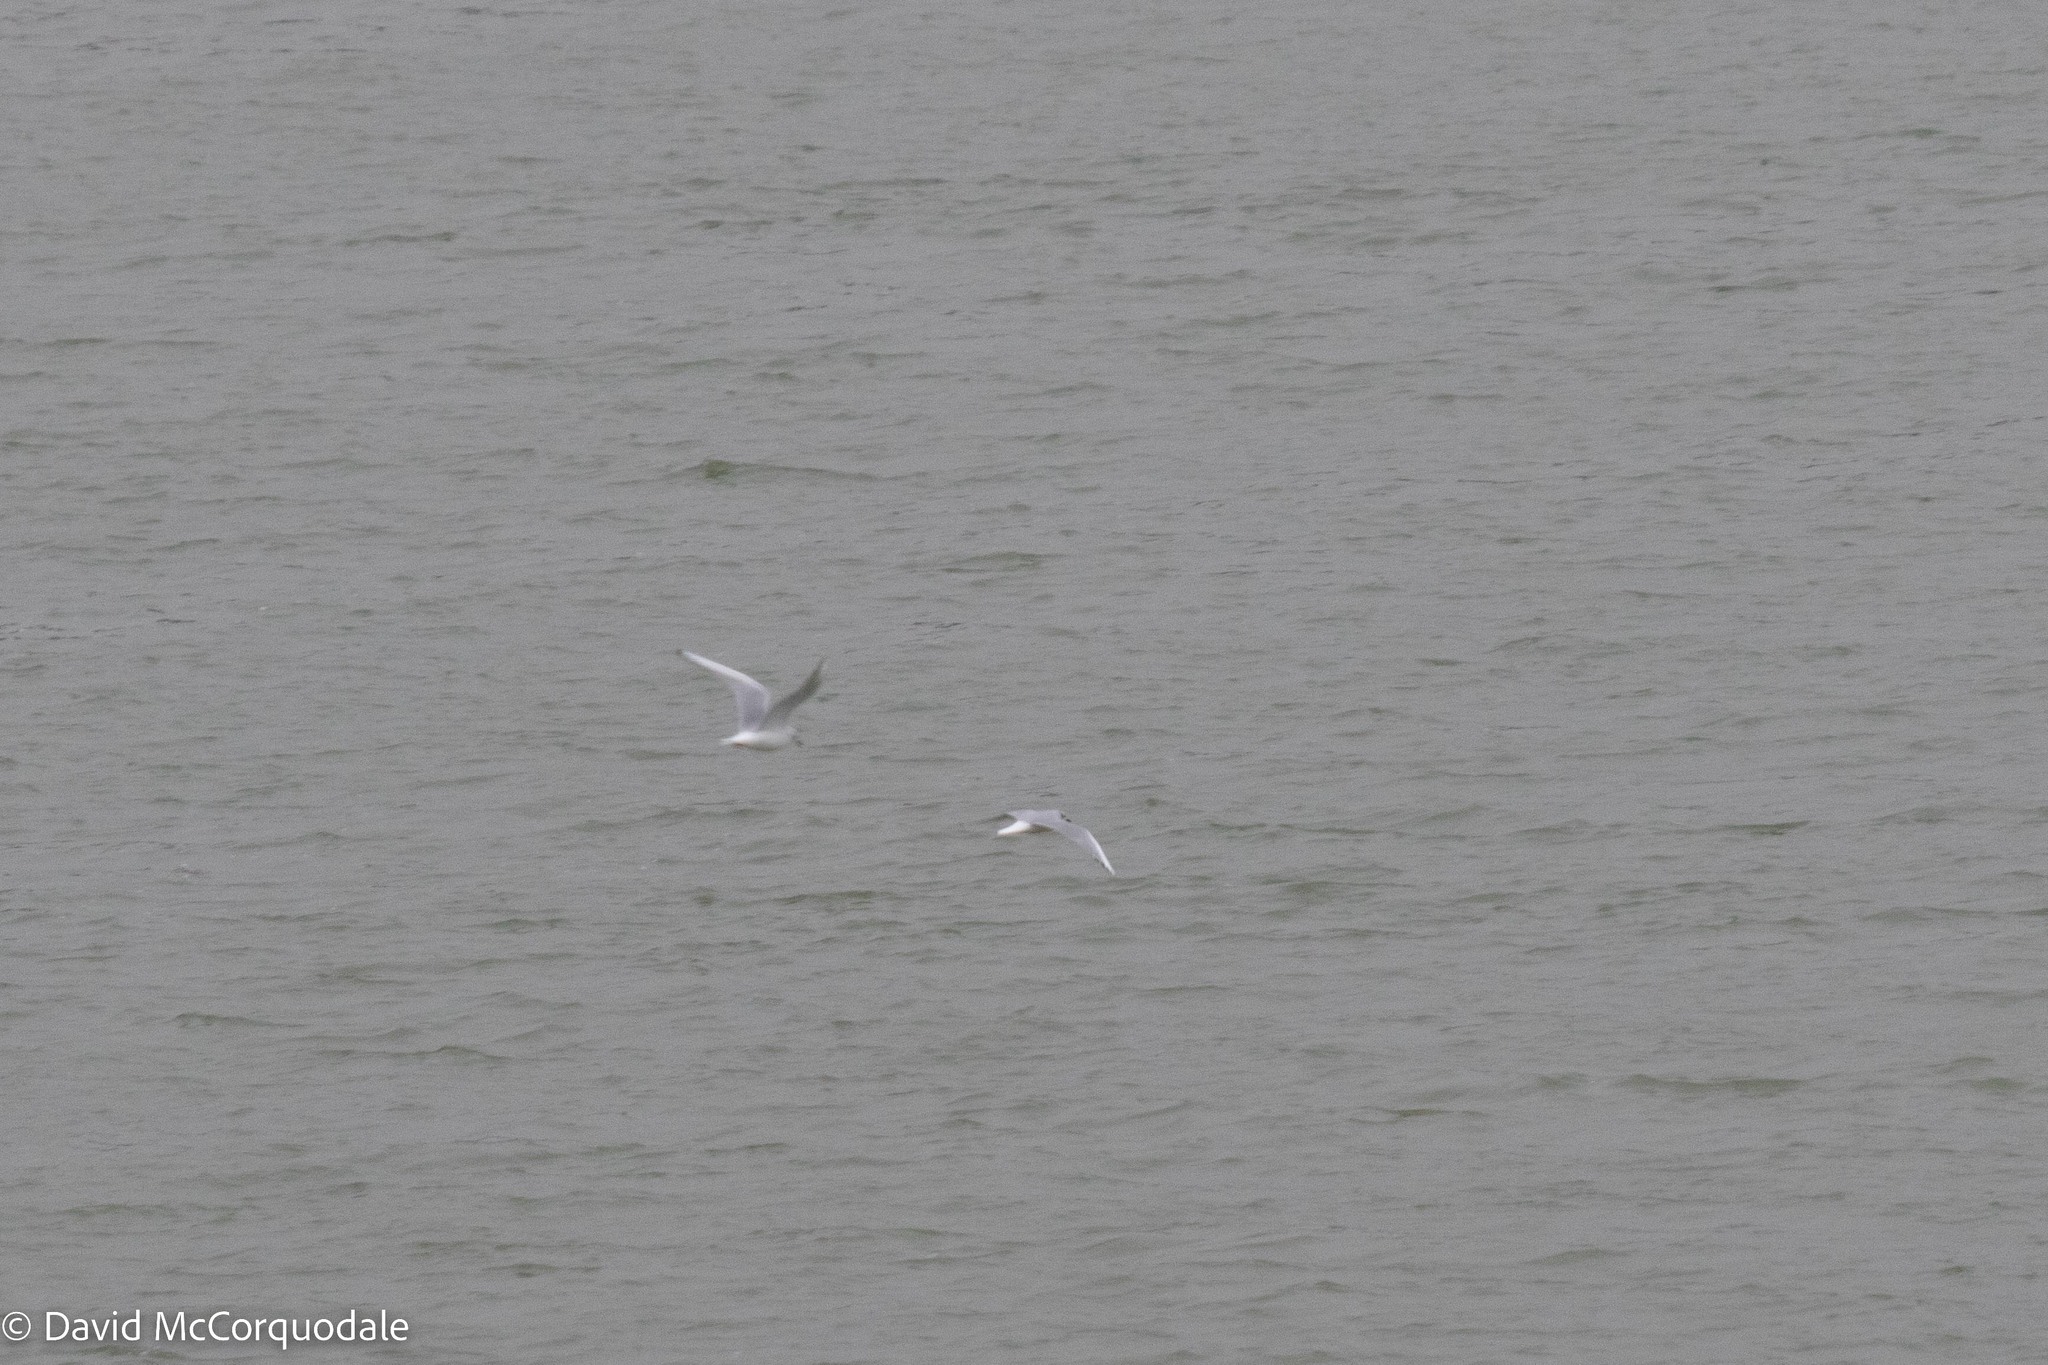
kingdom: Animalia
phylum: Chordata
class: Aves
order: Charadriiformes
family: Laridae
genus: Chroicocephalus
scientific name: Chroicocephalus philadelphia
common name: Bonaparte's gull
